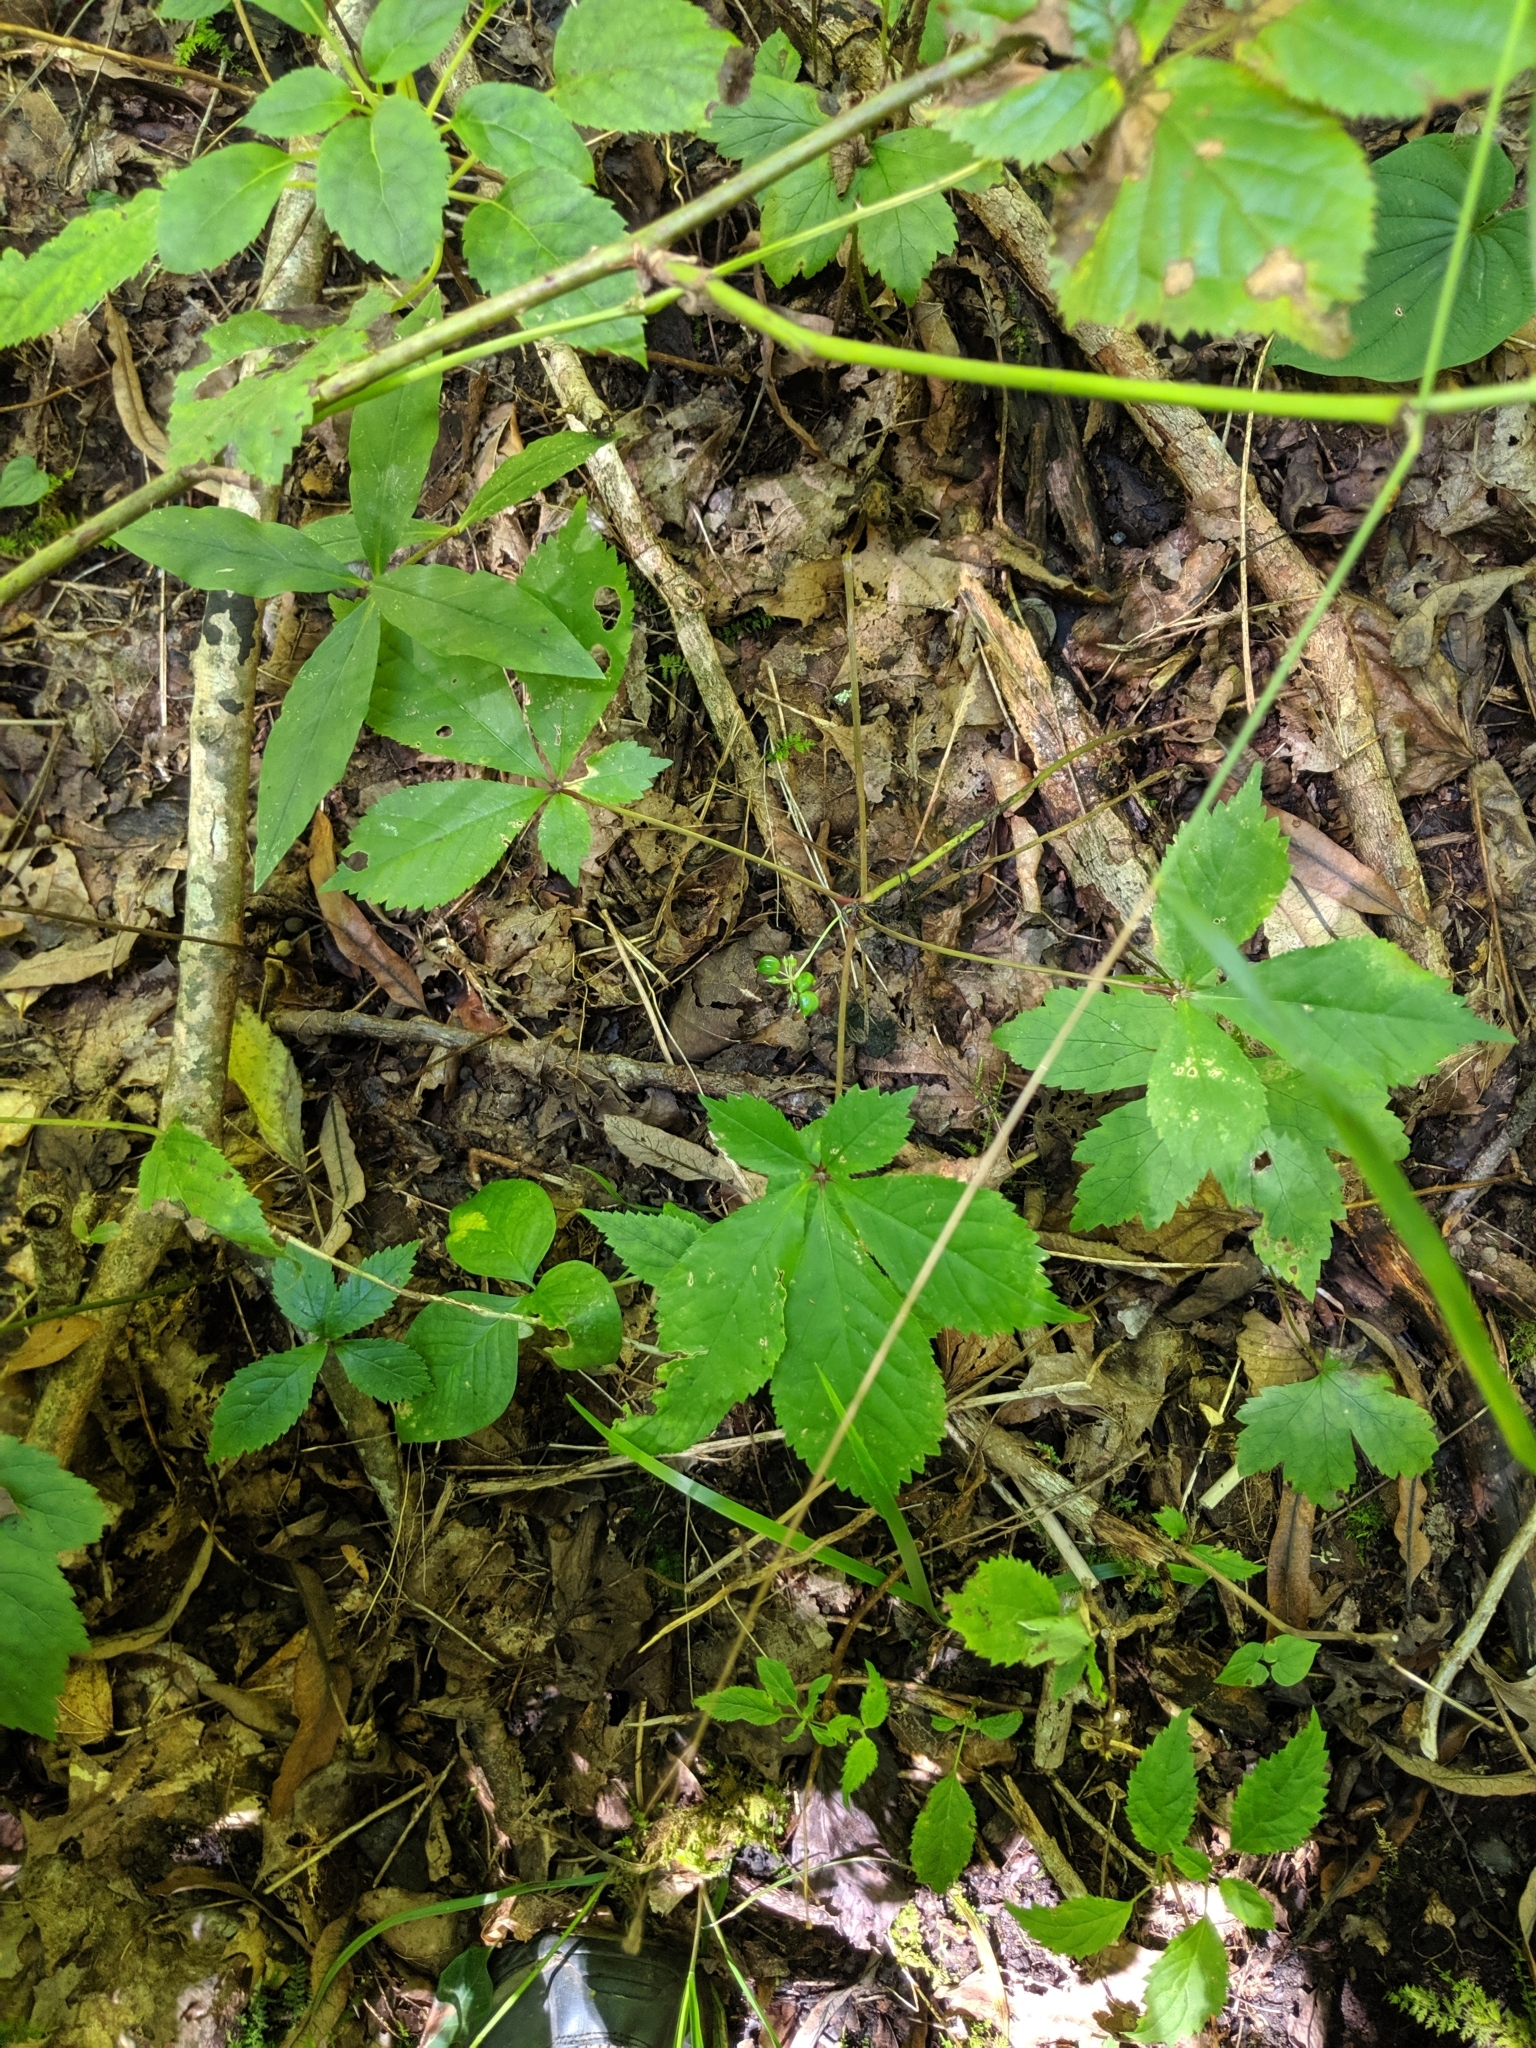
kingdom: Plantae
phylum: Tracheophyta
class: Magnoliopsida
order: Apiales
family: Araliaceae
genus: Panax
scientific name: Panax quinquefolius
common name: American ginseng
